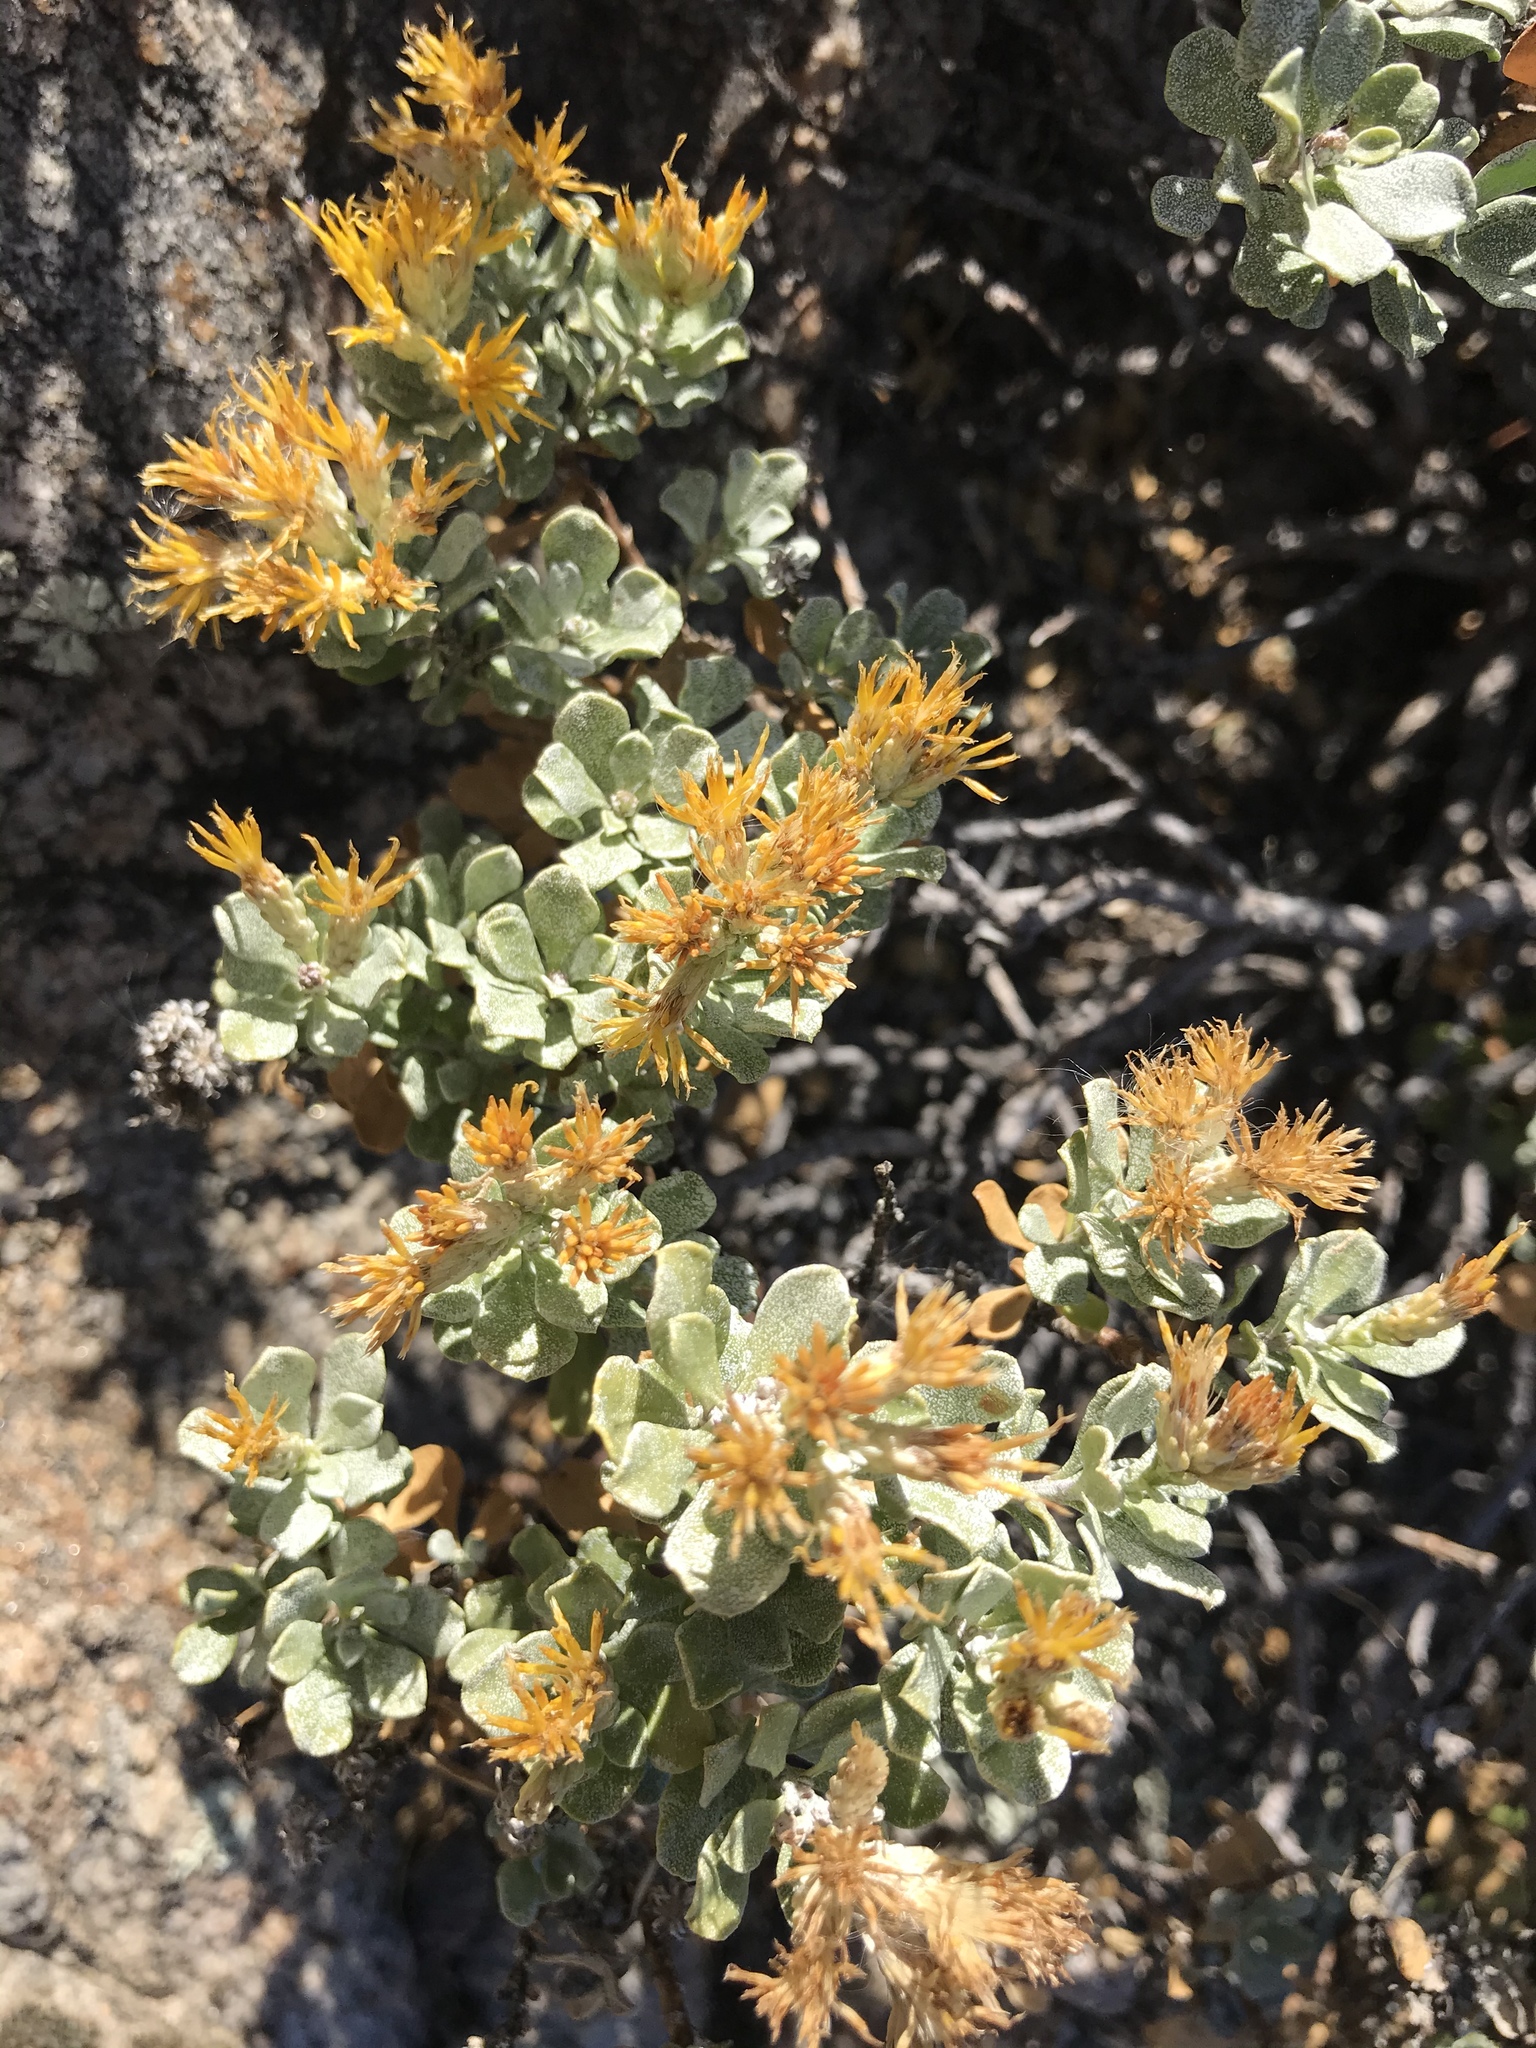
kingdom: Plantae
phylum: Tracheophyta
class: Magnoliopsida
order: Asterales
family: Asteraceae
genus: Ericameria
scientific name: Ericameria cuneata
